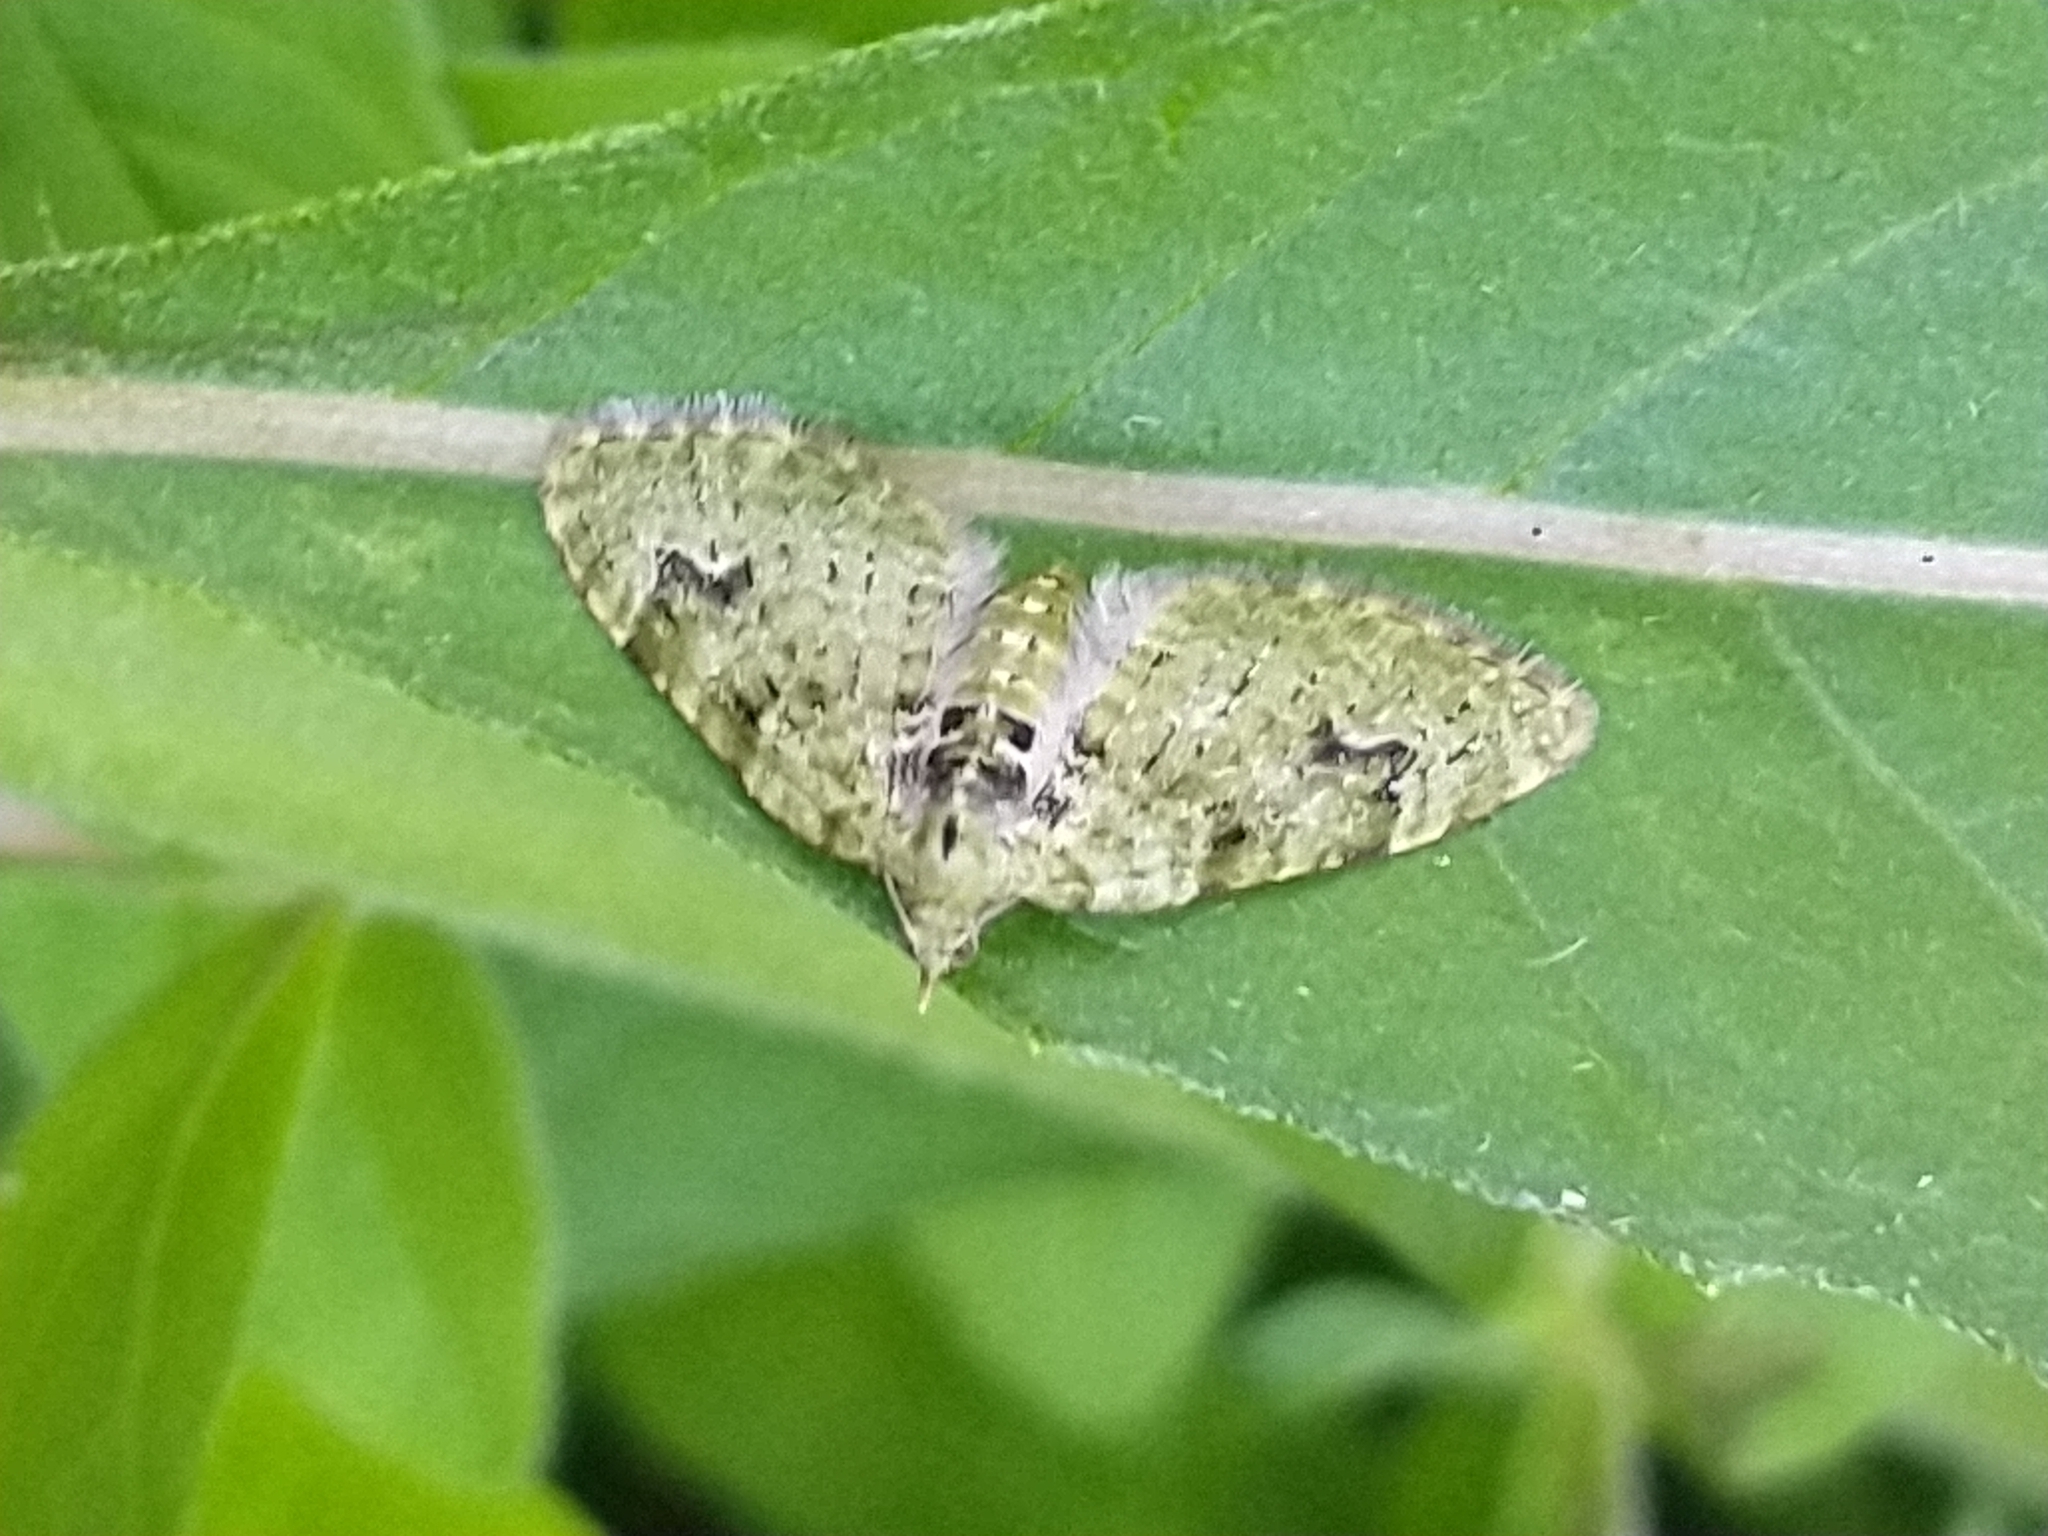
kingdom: Animalia
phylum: Arthropoda
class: Insecta
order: Lepidoptera
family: Geometridae
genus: Chloroclystis
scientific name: Chloroclystis v-ata
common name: V-pug
